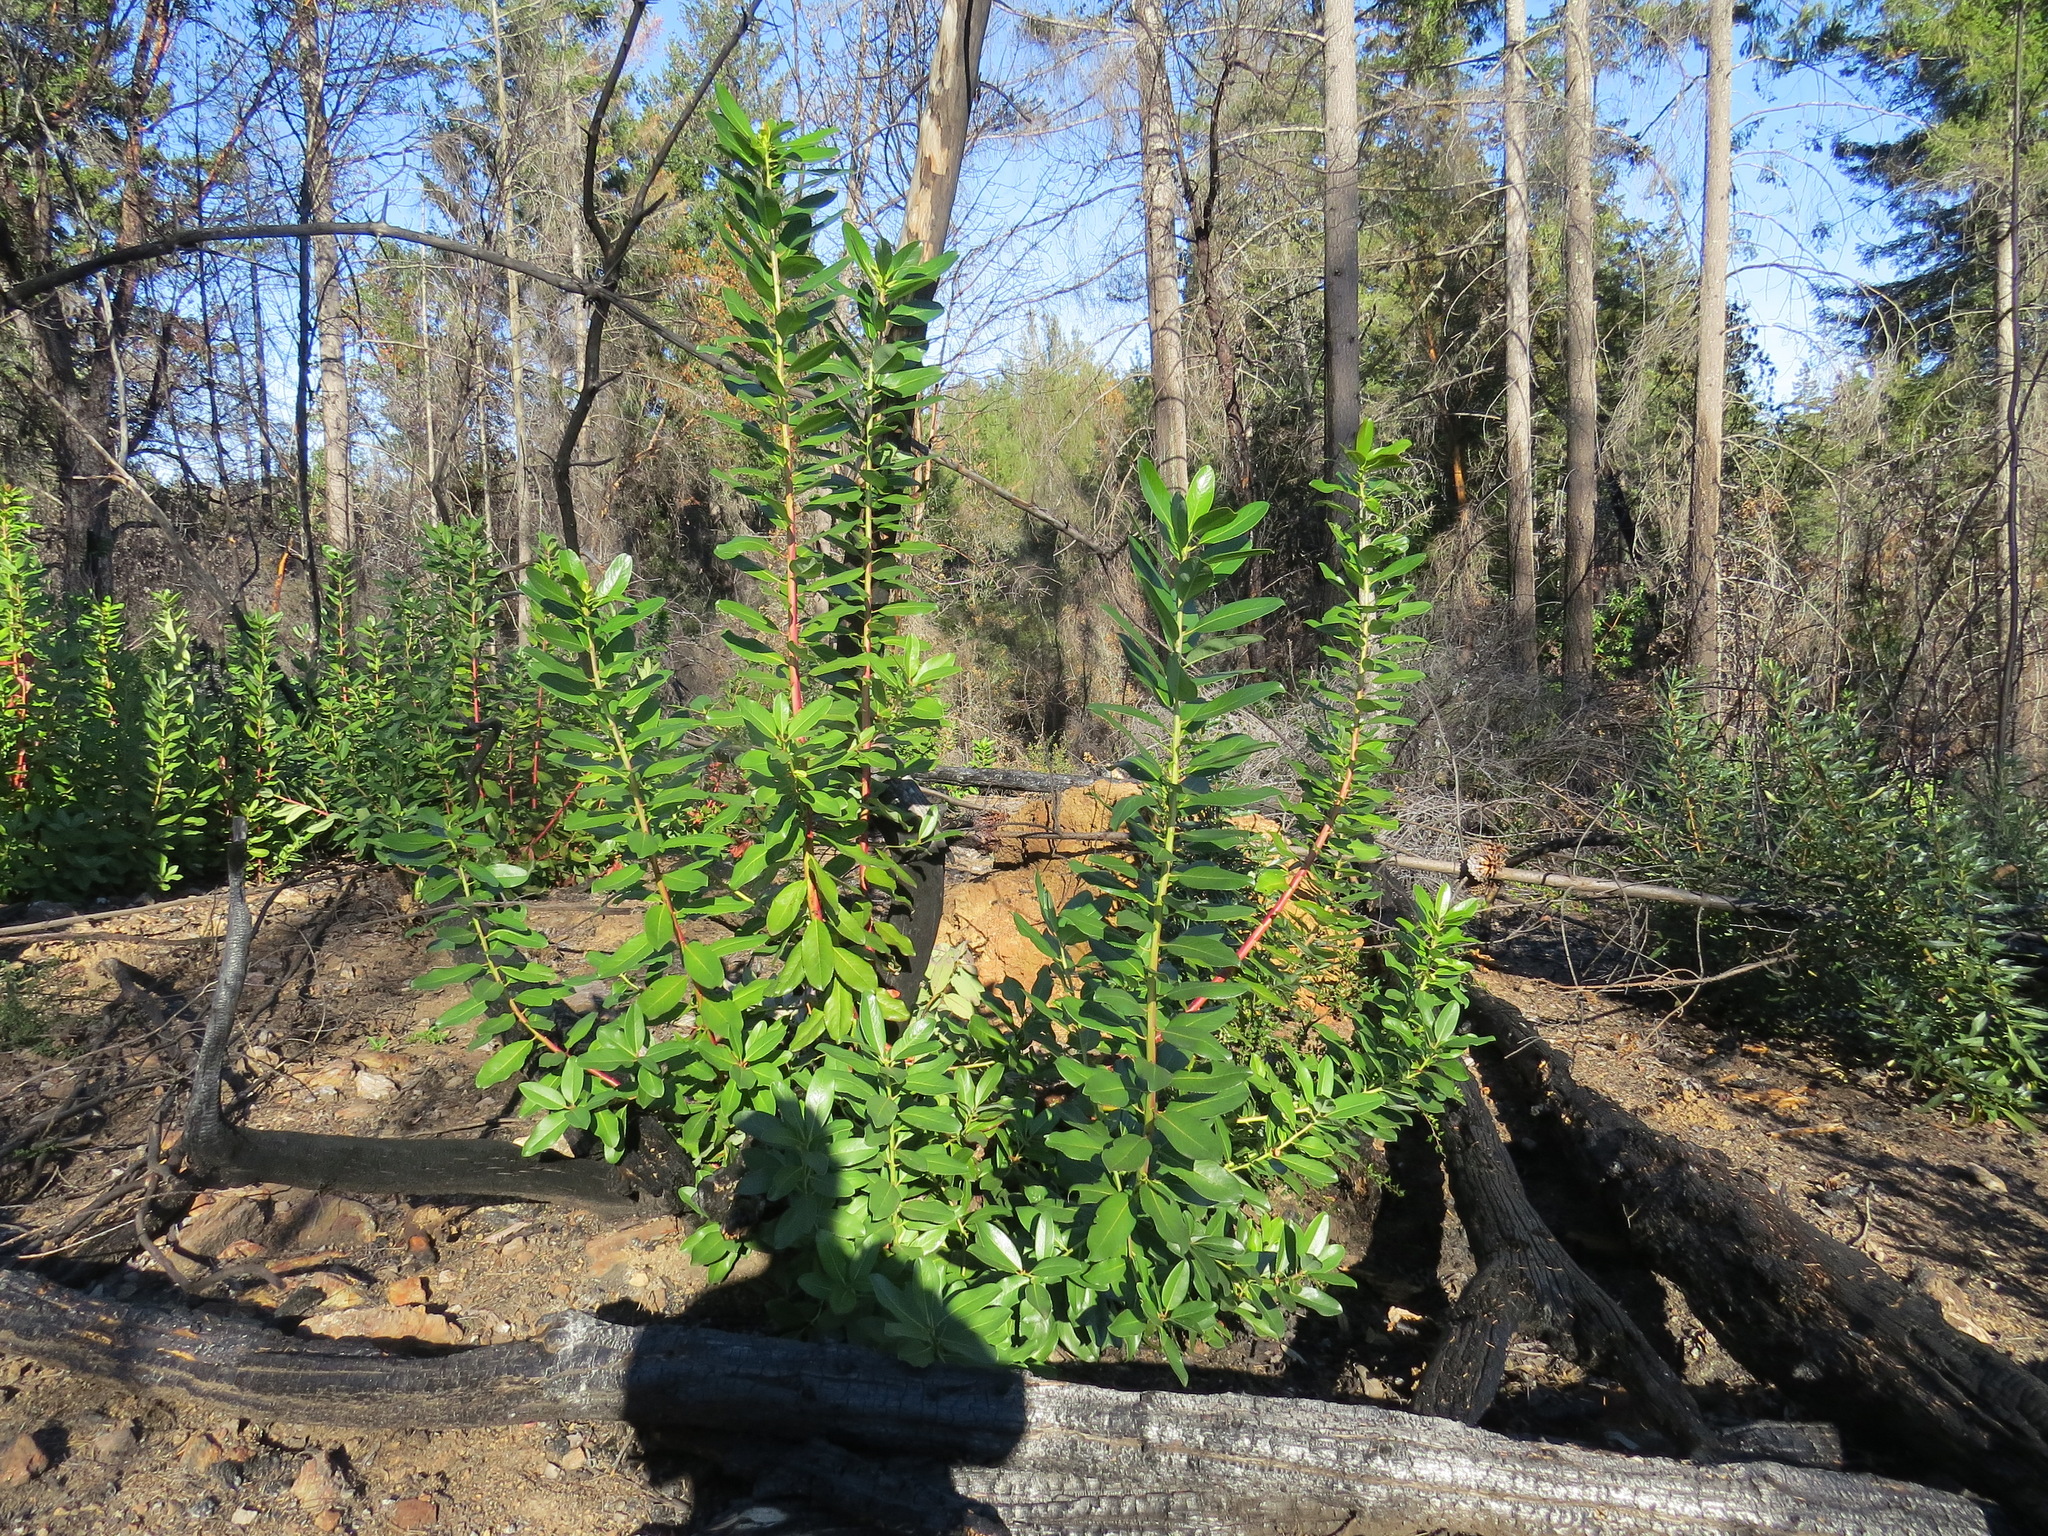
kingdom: Plantae
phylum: Tracheophyta
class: Magnoliopsida
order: Ericales
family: Ericaceae
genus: Arbutus
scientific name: Arbutus menziesii
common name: Pacific madrone
